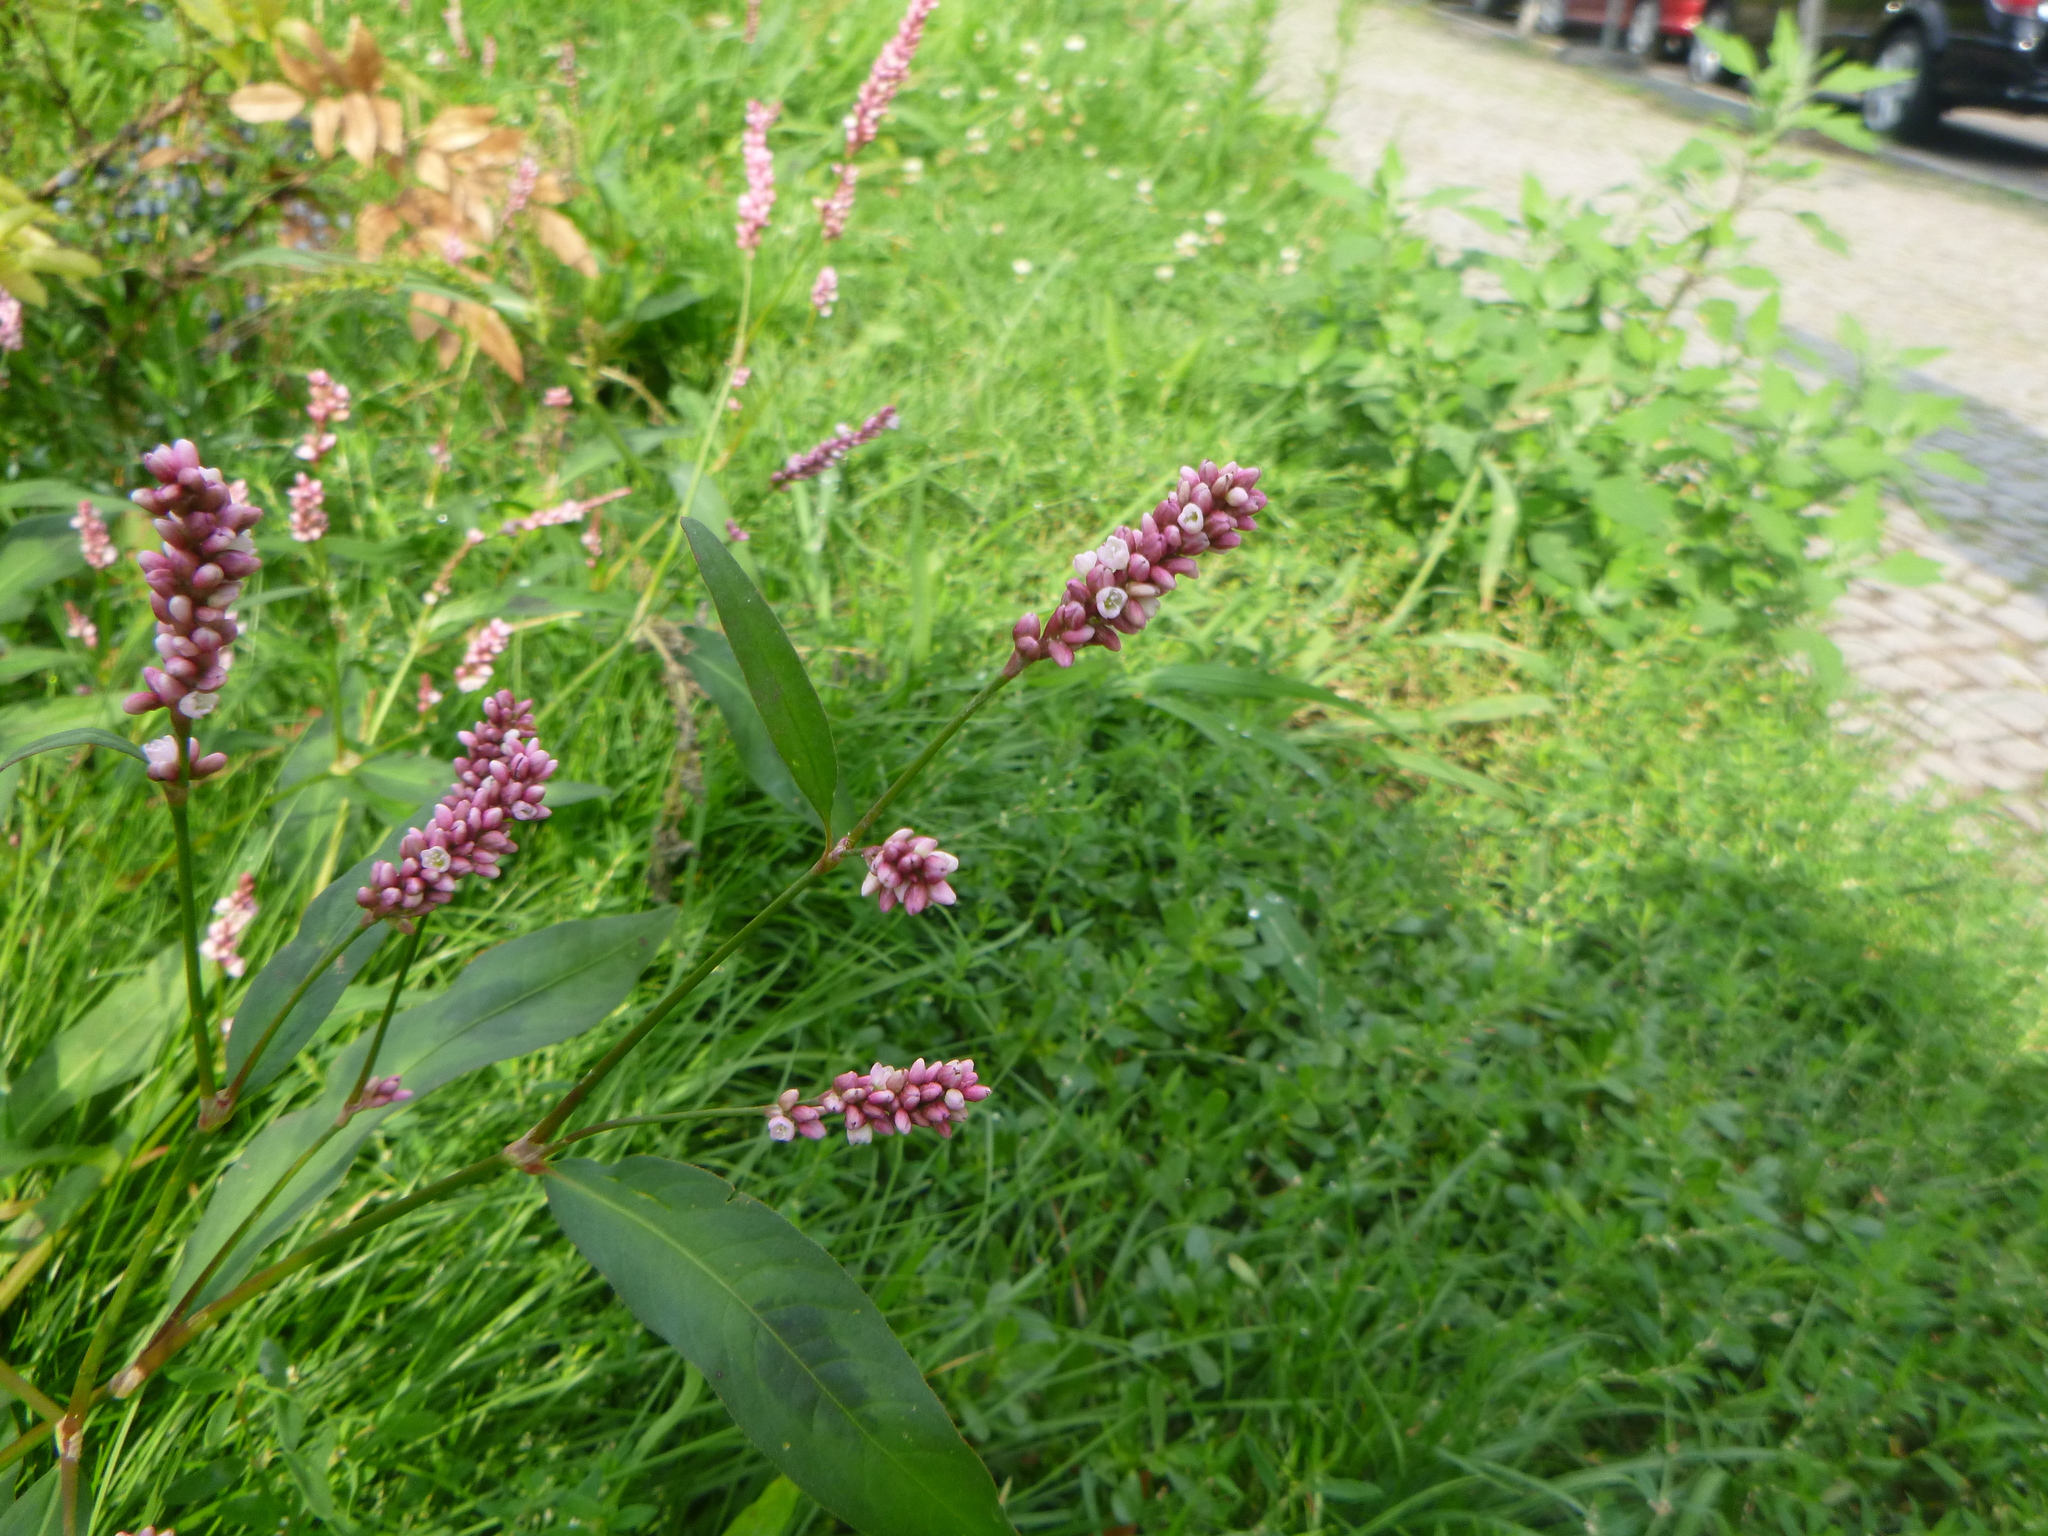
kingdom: Plantae
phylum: Tracheophyta
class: Magnoliopsida
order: Caryophyllales
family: Polygonaceae
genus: Persicaria
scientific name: Persicaria maculosa
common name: Redshank
